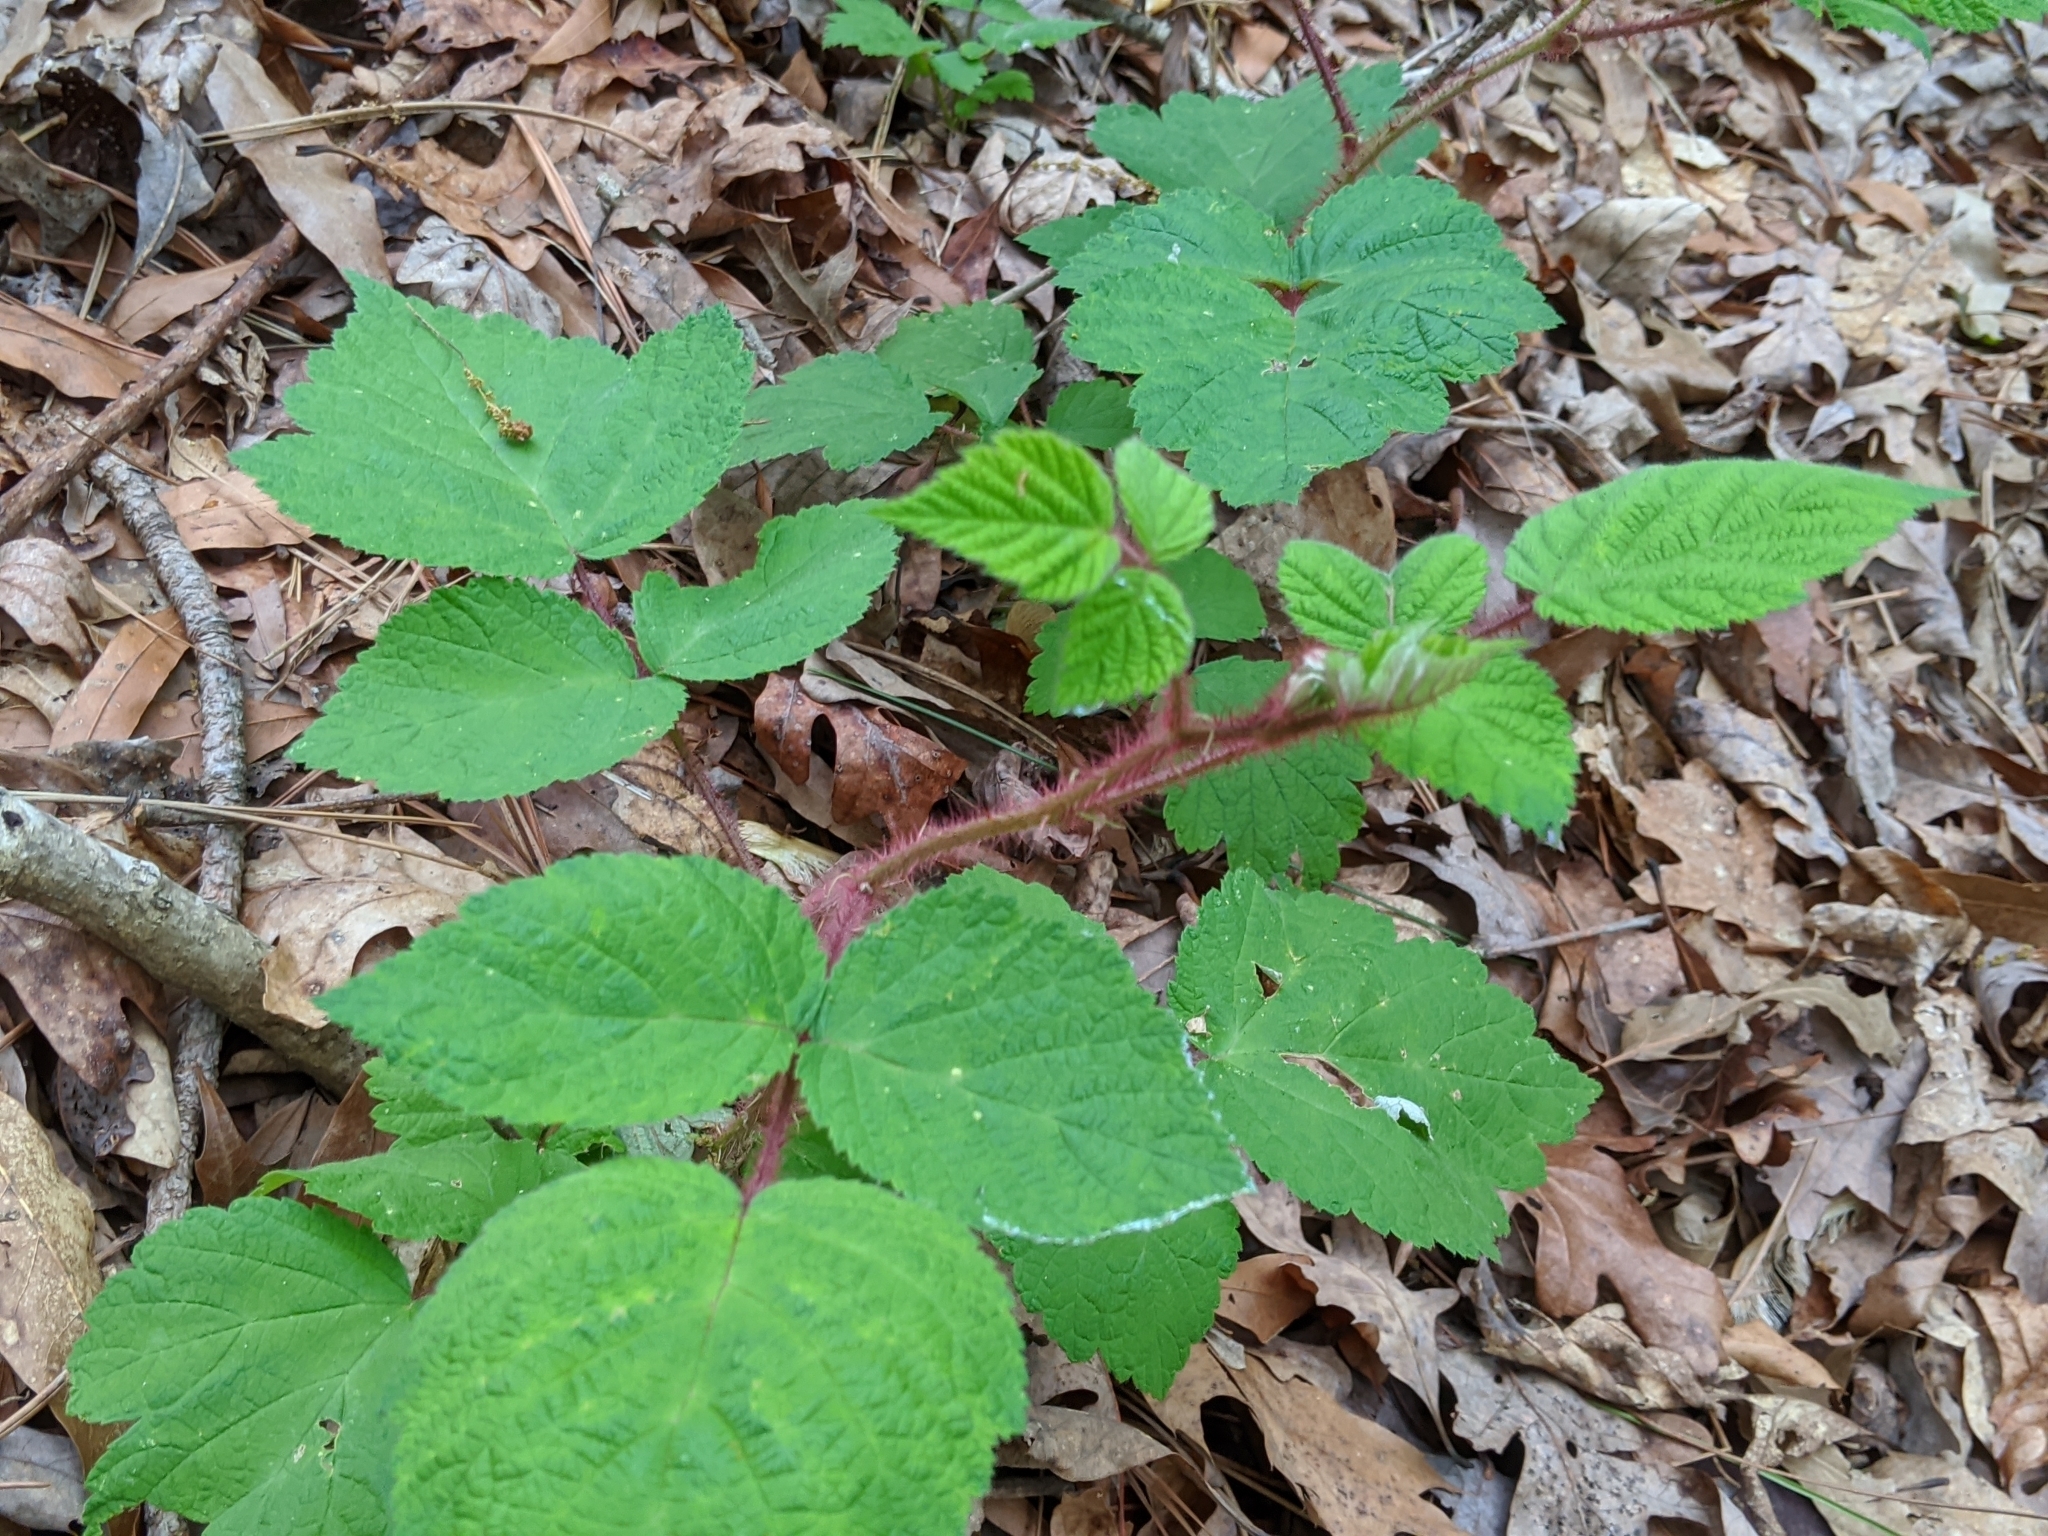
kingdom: Plantae
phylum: Tracheophyta
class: Magnoliopsida
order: Rosales
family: Rosaceae
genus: Rubus
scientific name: Rubus phoenicolasius
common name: Japanese wineberry
